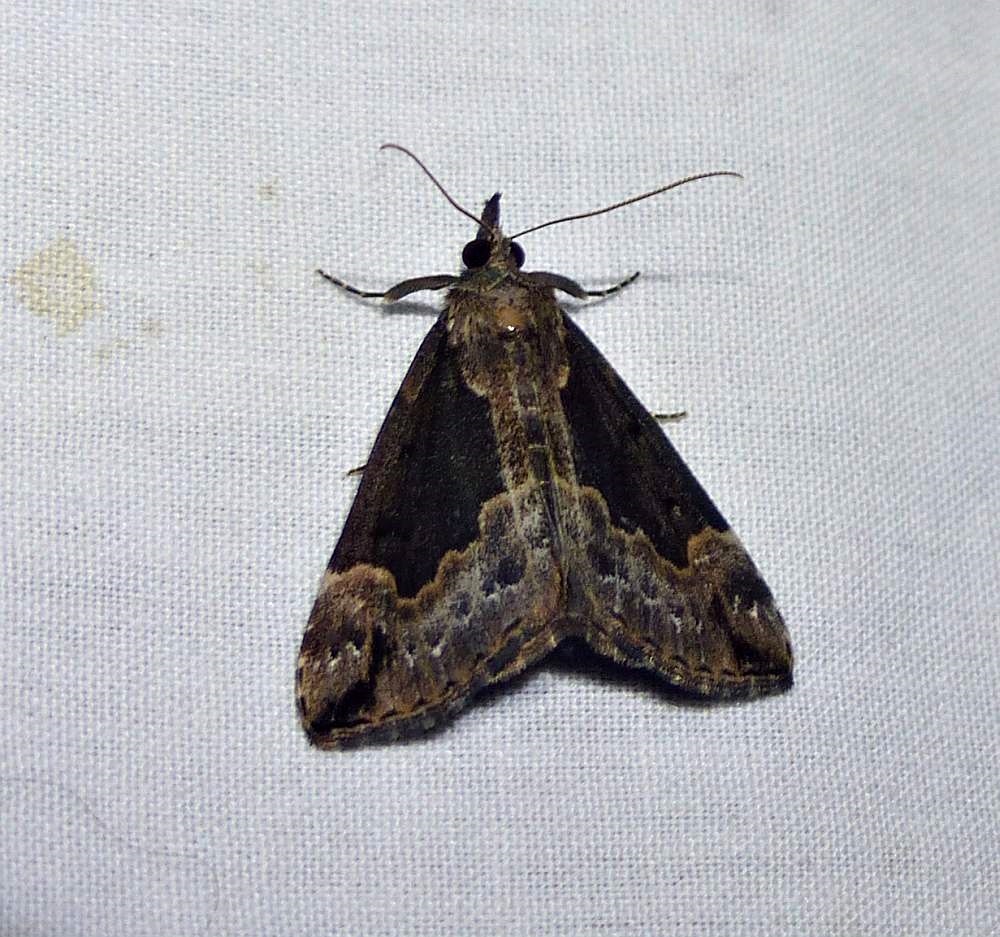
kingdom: Animalia
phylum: Arthropoda
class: Insecta
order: Lepidoptera
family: Erebidae
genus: Hypena
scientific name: Hypena baltimoralis
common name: Baltimore snout
